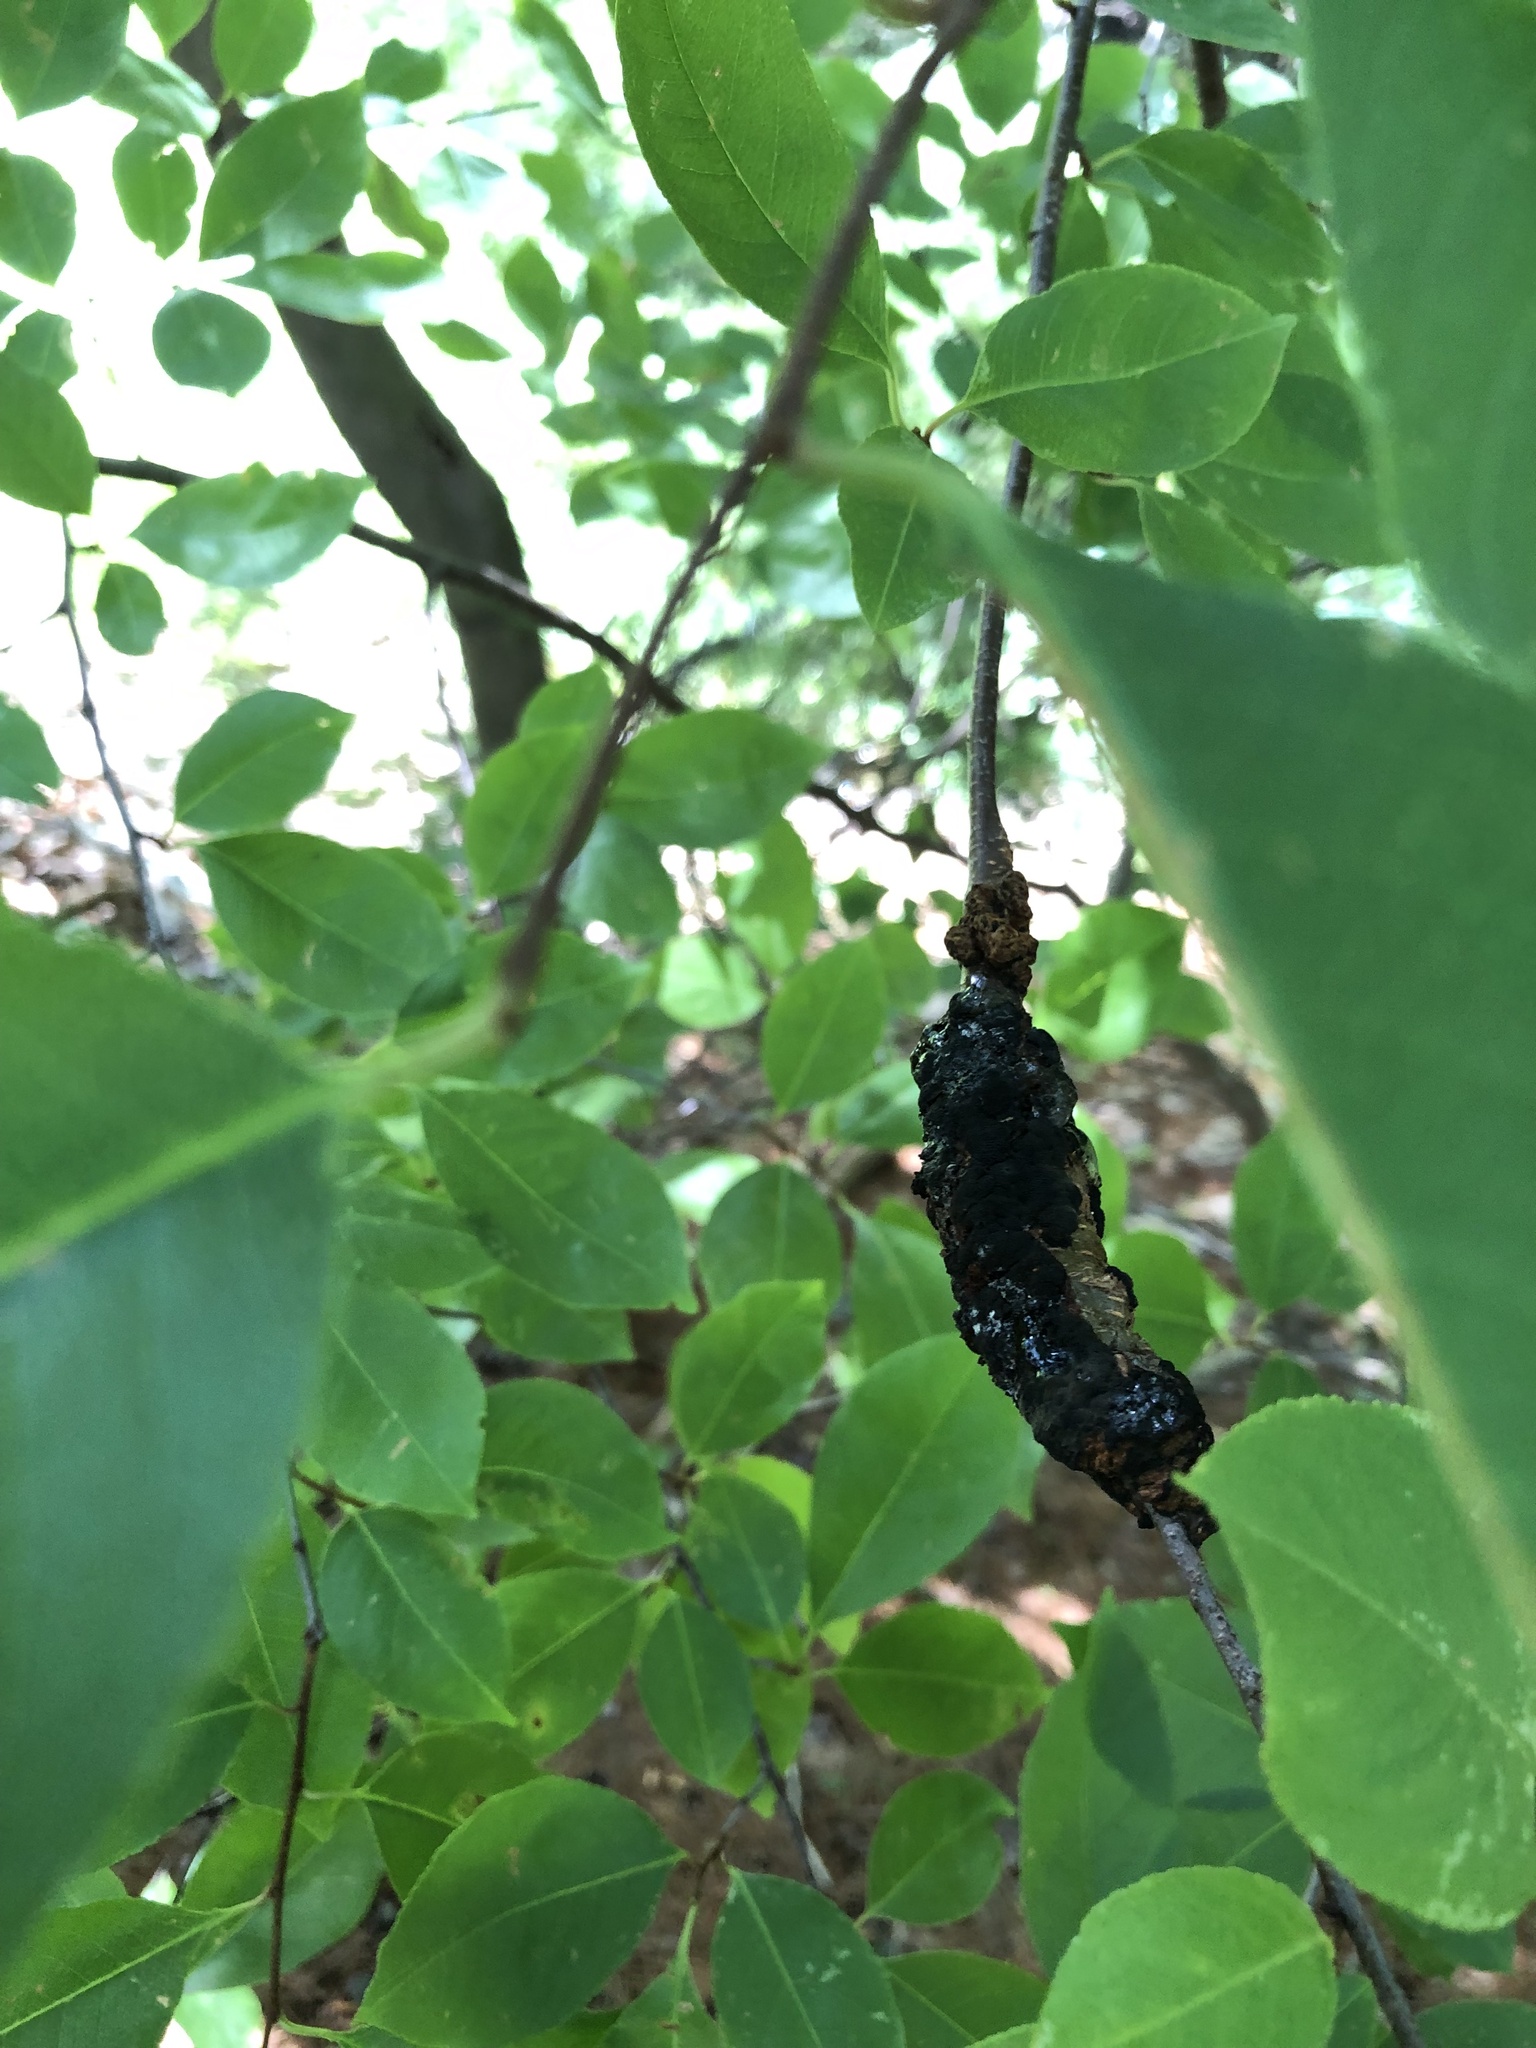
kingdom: Fungi
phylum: Ascomycota
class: Dothideomycetes
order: Venturiales
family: Venturiaceae
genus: Apiosporina
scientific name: Apiosporina morbosa
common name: Black knot
